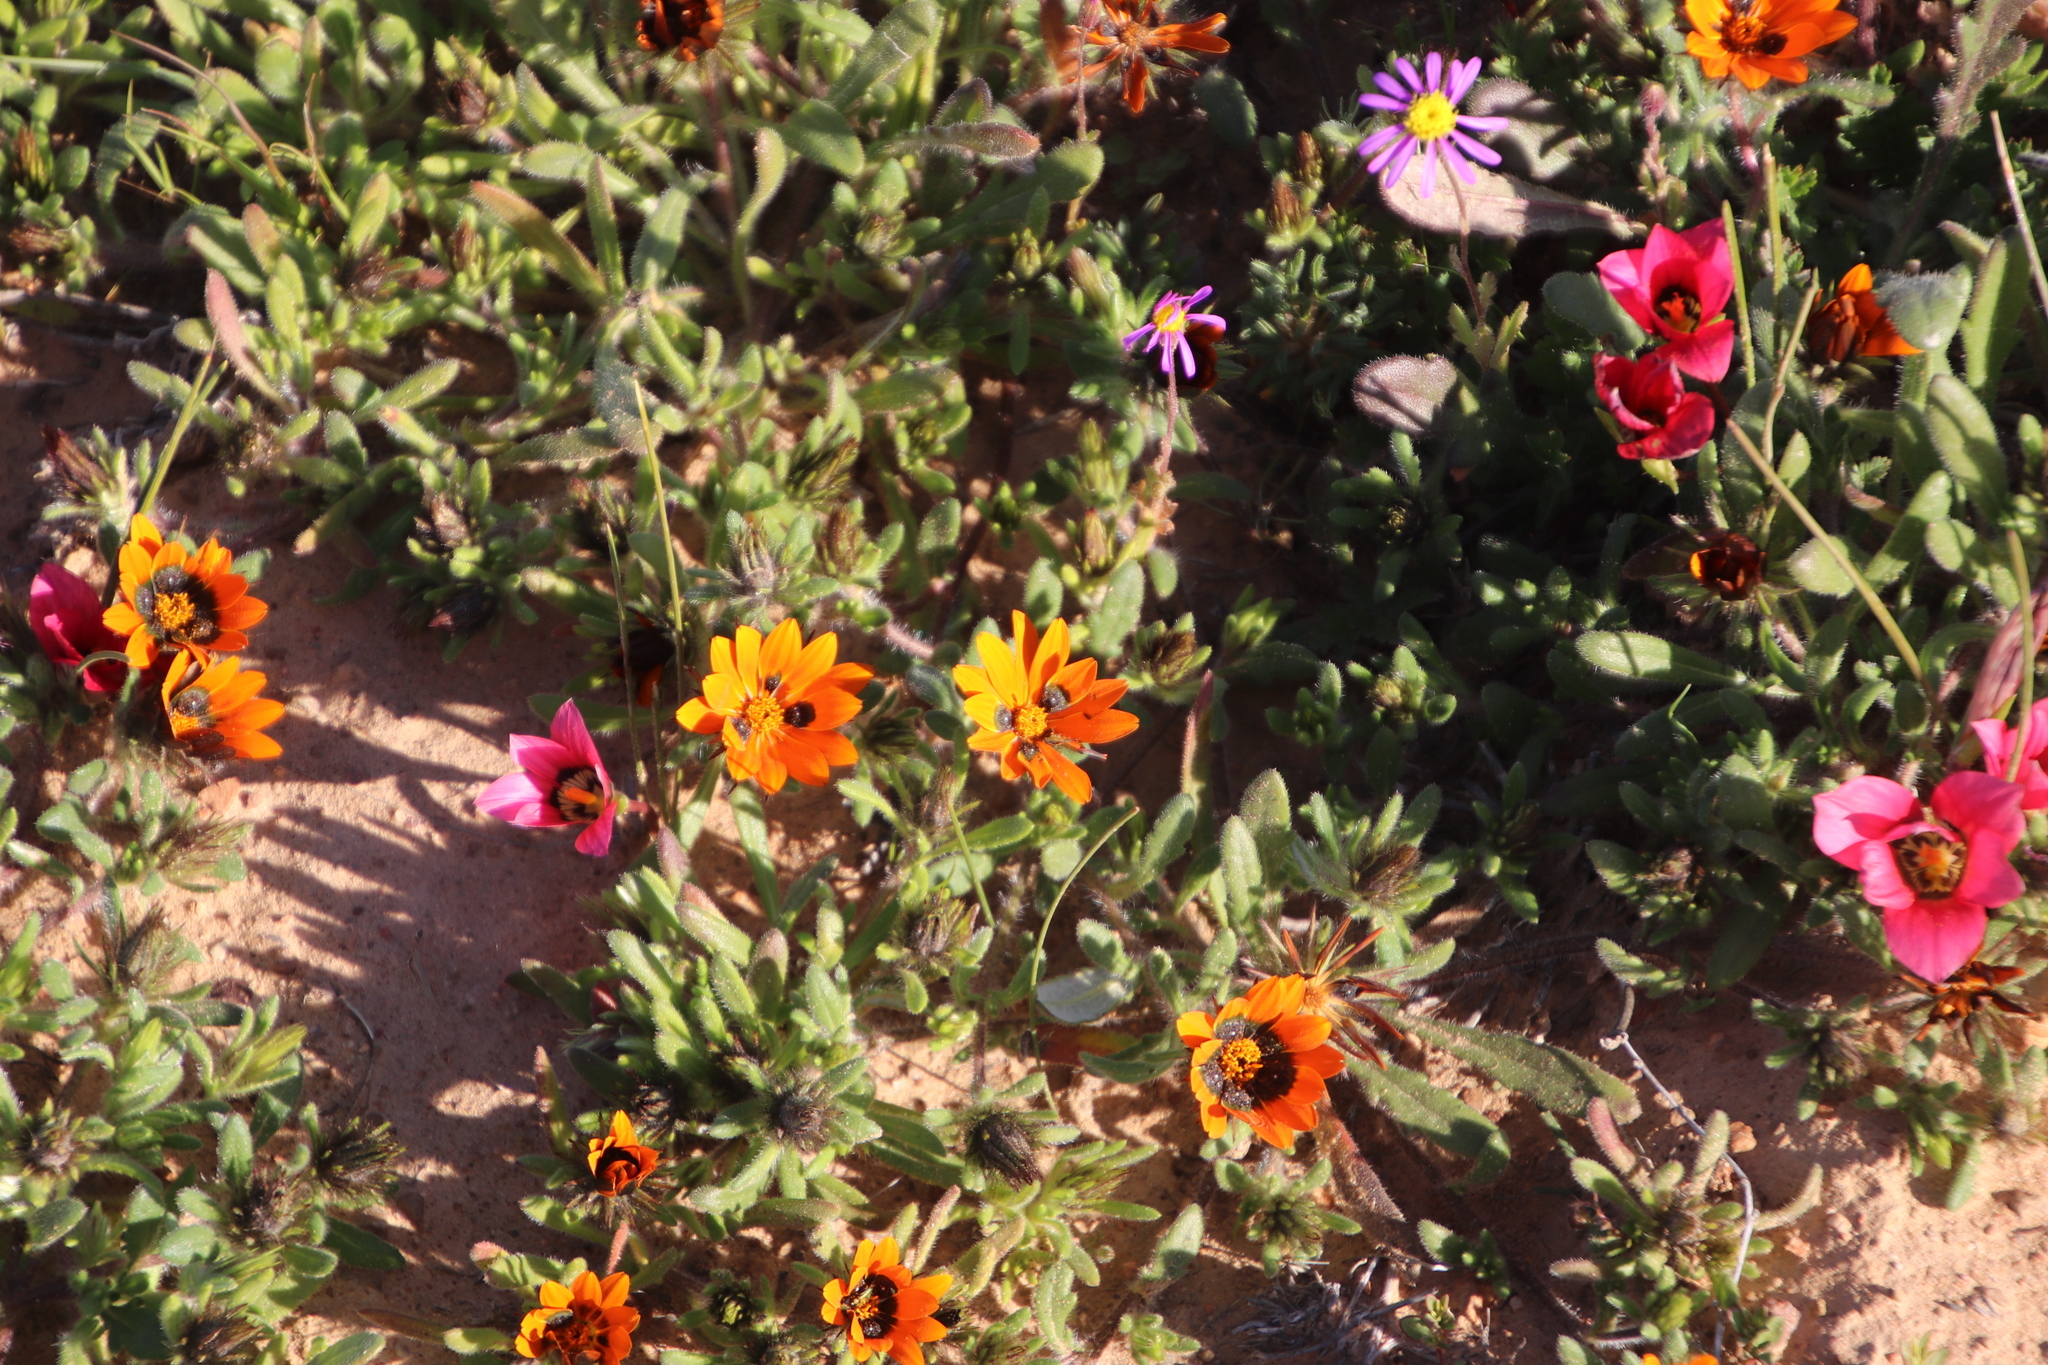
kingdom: Plantae
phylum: Tracheophyta
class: Magnoliopsida
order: Asterales
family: Asteraceae
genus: Gorteria
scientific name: Gorteria diffusa
